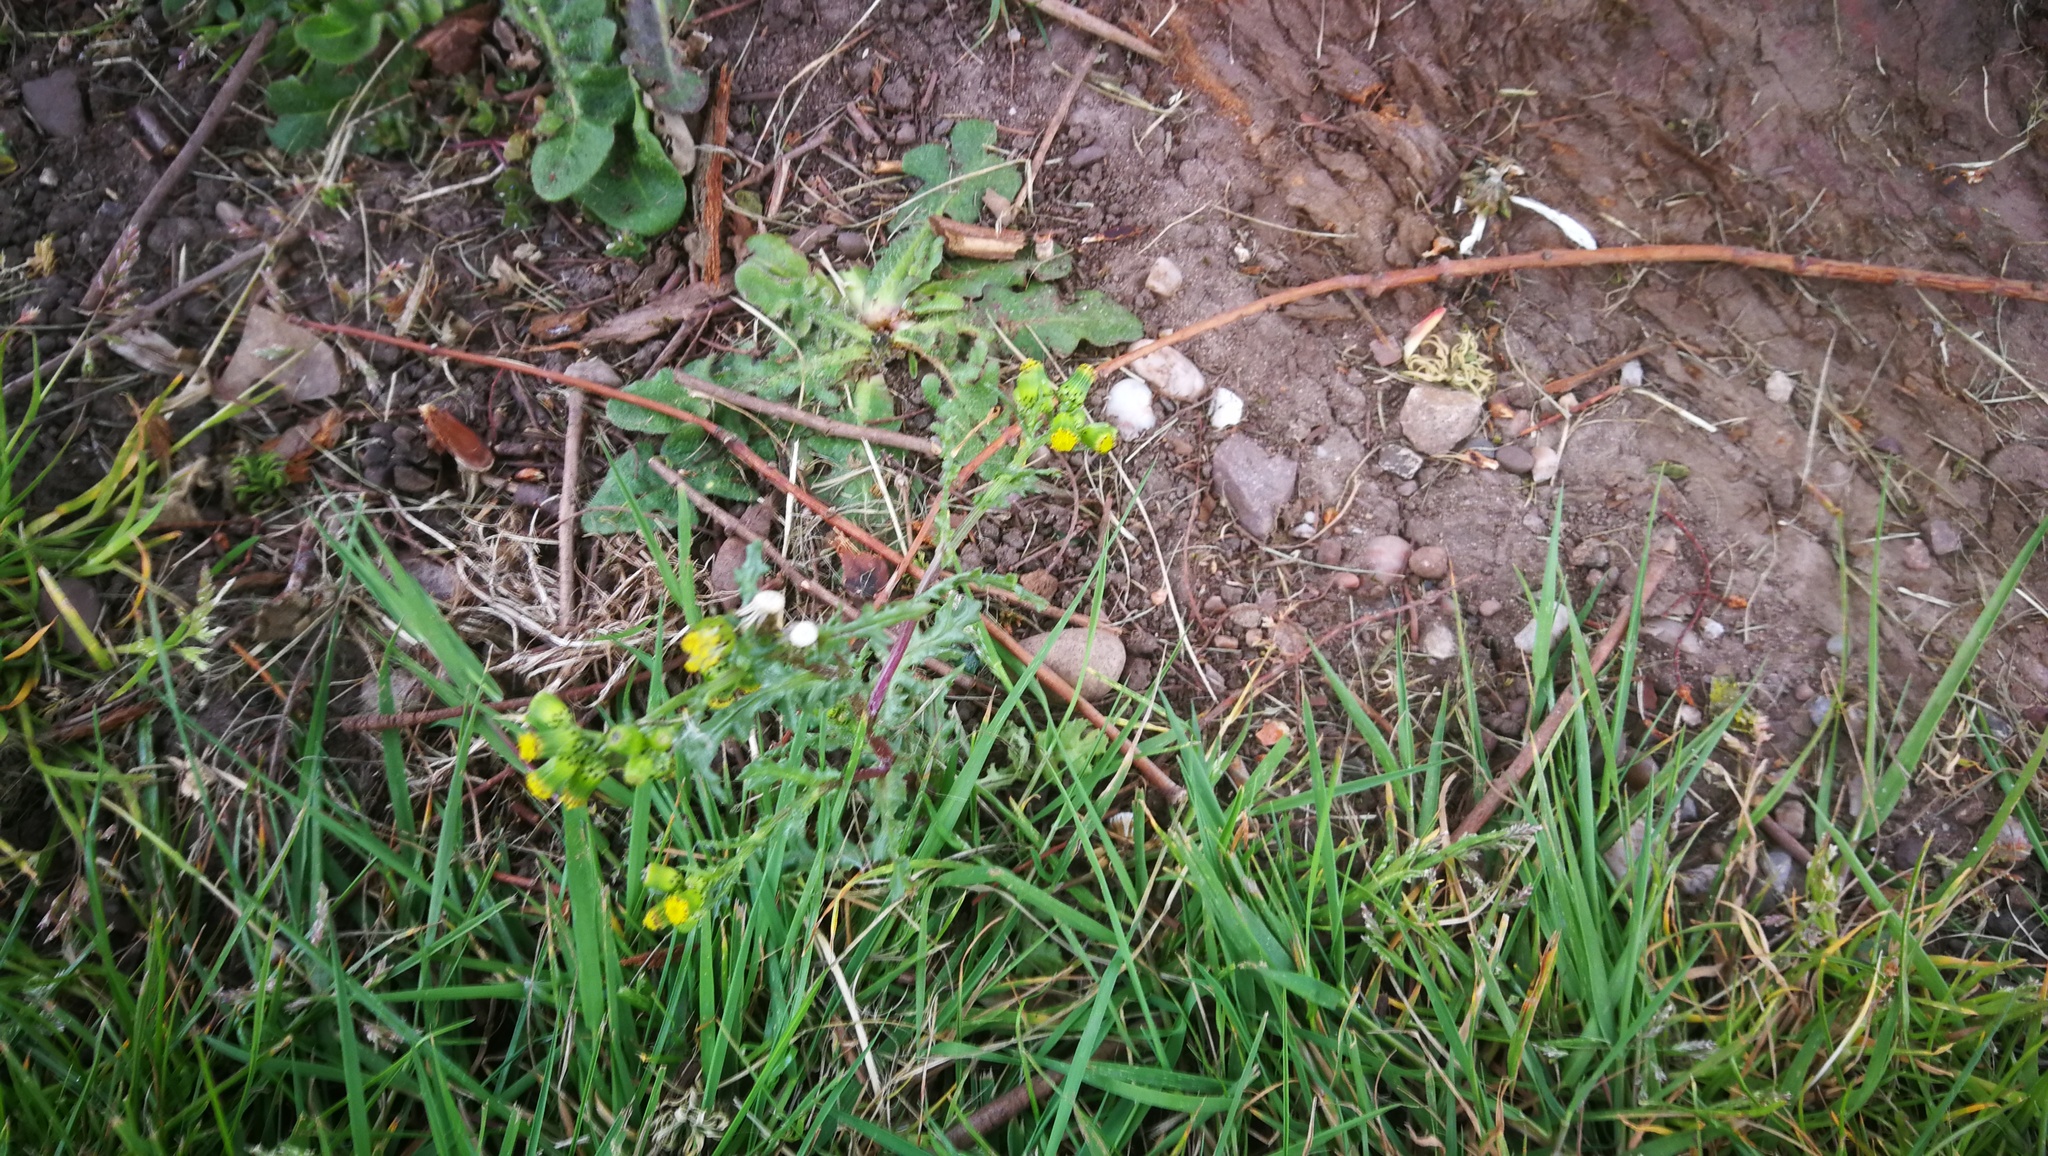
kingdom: Plantae
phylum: Tracheophyta
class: Magnoliopsida
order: Asterales
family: Asteraceae
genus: Senecio
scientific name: Senecio vulgaris
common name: Old-man-in-the-spring
